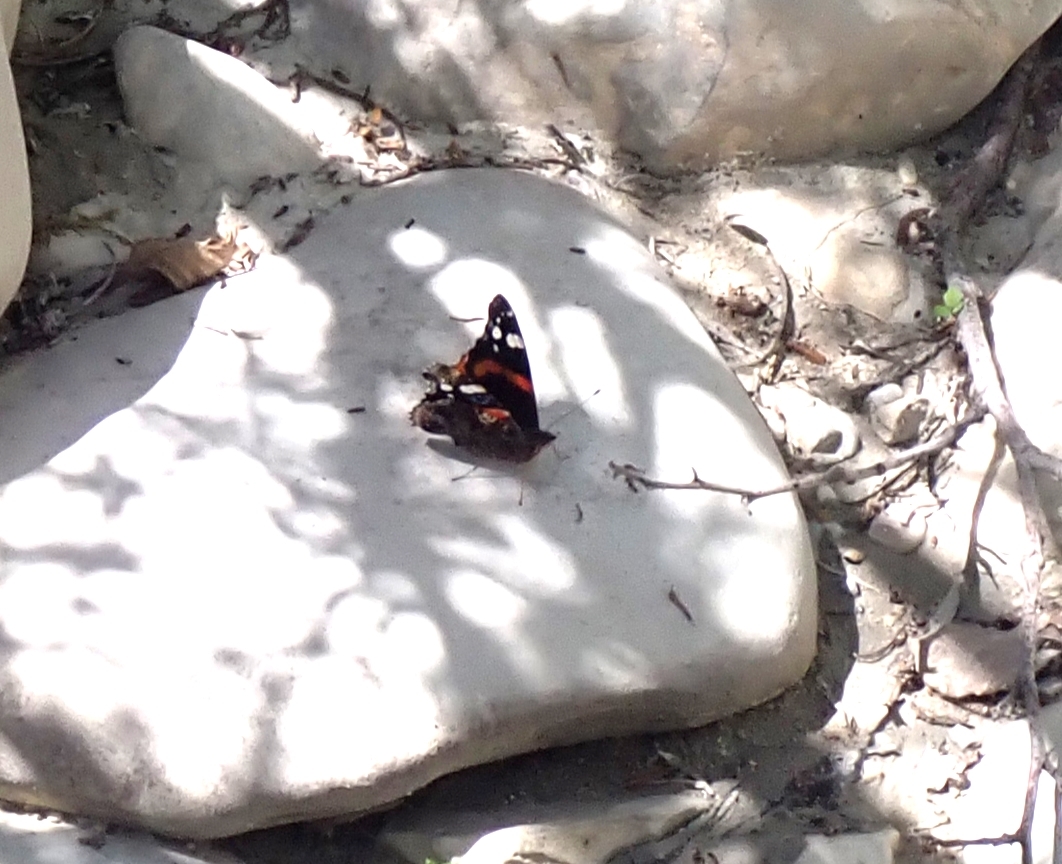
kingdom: Animalia
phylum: Arthropoda
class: Insecta
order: Lepidoptera
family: Nymphalidae
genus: Vanessa
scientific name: Vanessa atalanta
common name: Red admiral
